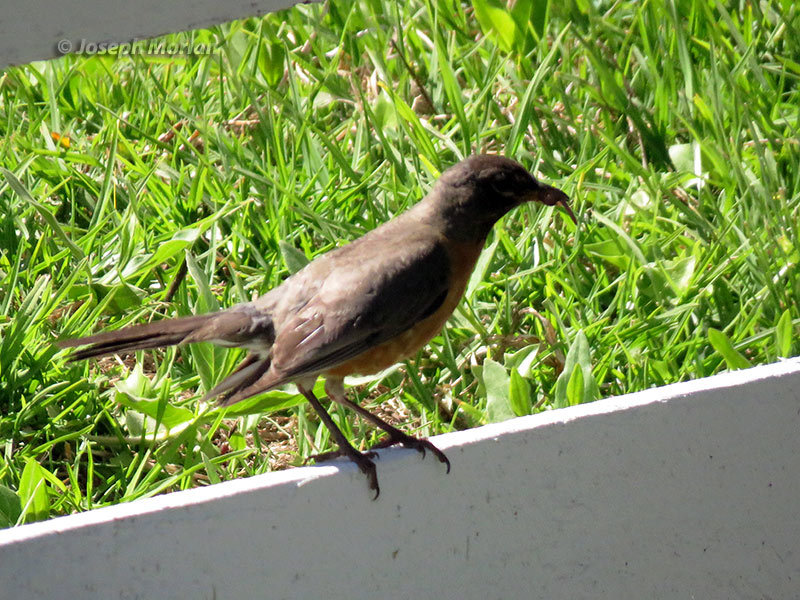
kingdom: Animalia
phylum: Chordata
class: Aves
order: Passeriformes
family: Turdidae
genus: Turdus
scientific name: Turdus migratorius
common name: American robin
